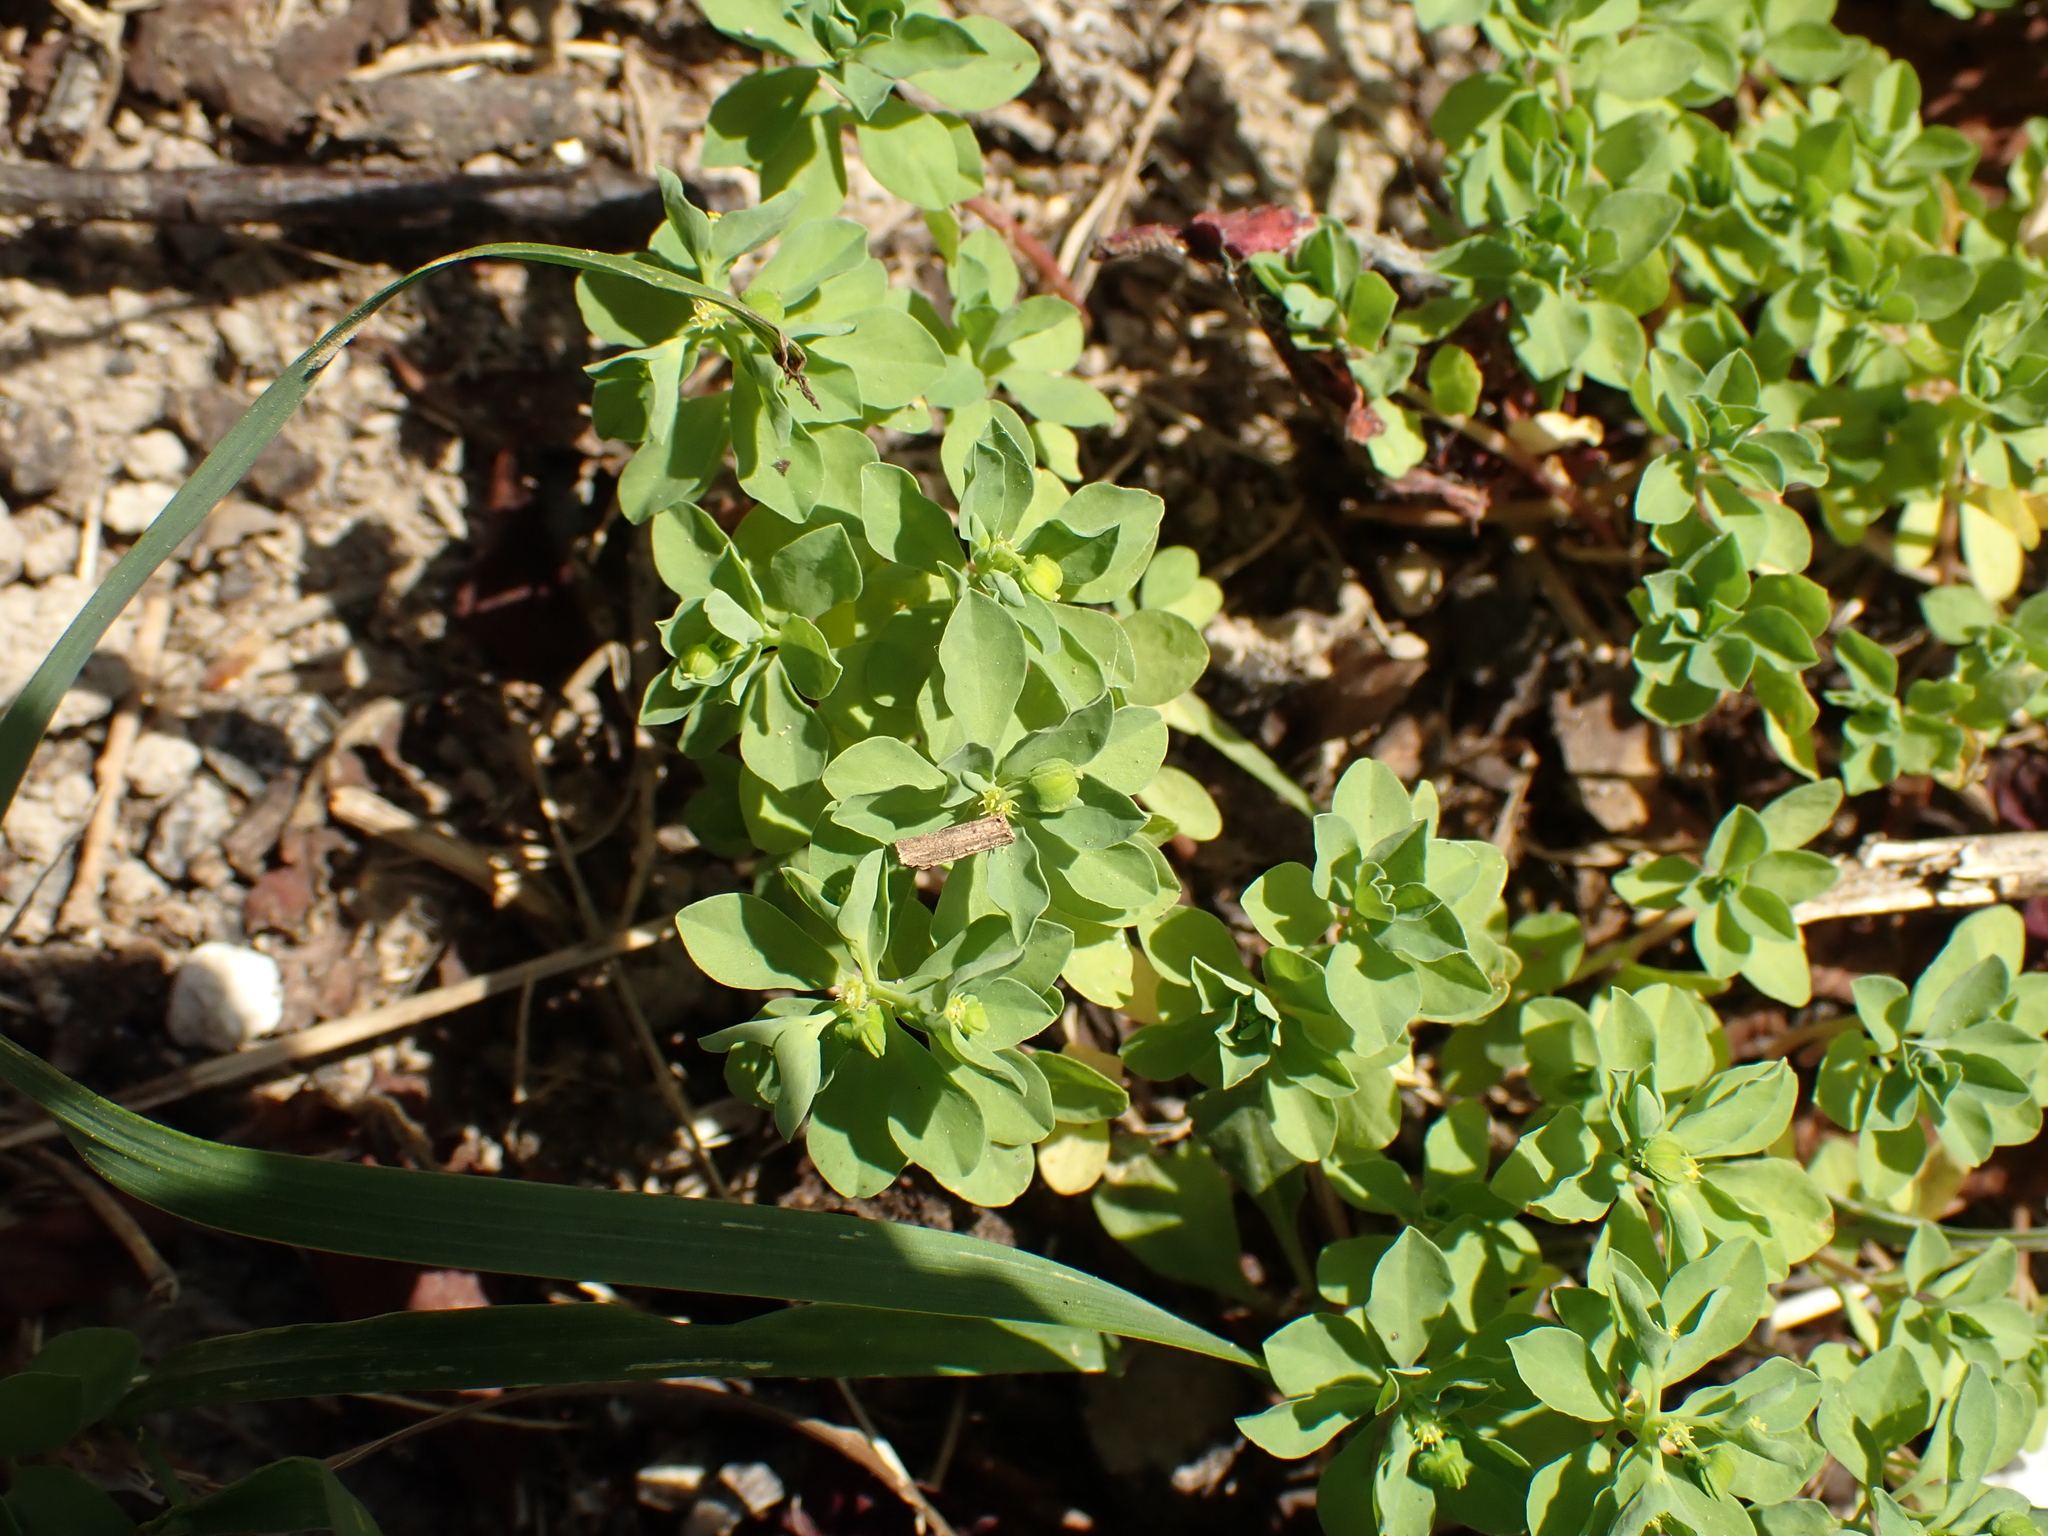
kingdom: Plantae
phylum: Tracheophyta
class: Magnoliopsida
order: Malpighiales
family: Euphorbiaceae
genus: Euphorbia
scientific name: Euphorbia peplus
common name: Petty spurge
